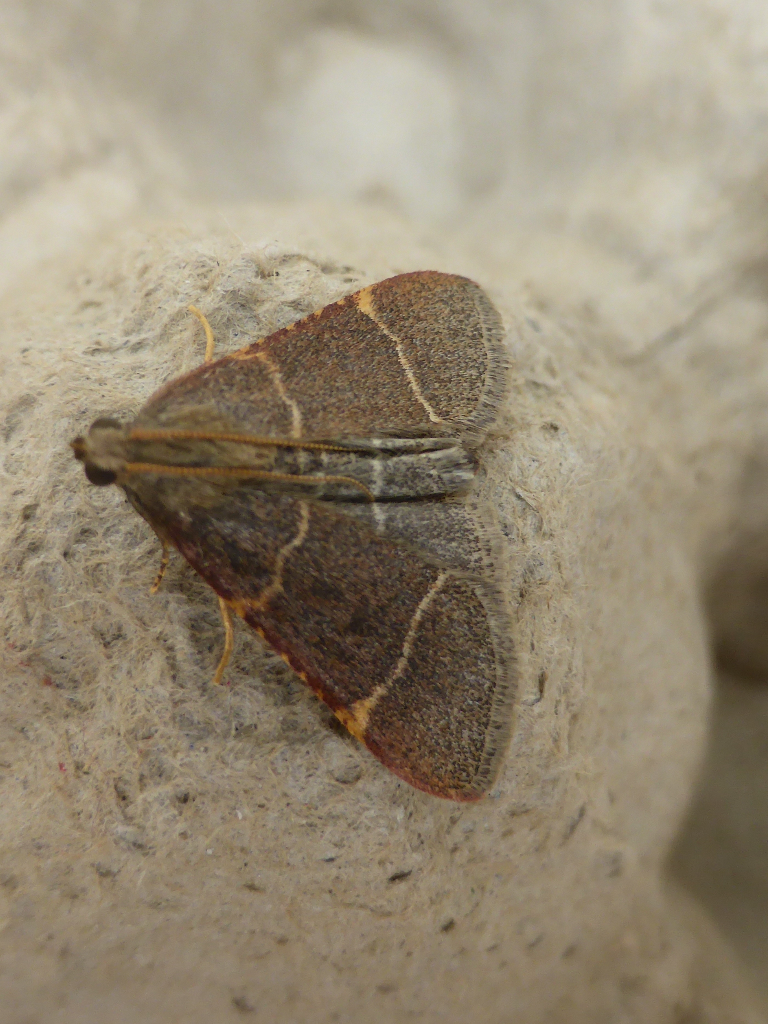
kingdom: Animalia
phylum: Arthropoda
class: Insecta
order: Lepidoptera
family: Pyralidae
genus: Hypsopygia
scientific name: Hypsopygia glaucinalis
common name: Double-striped tabby
